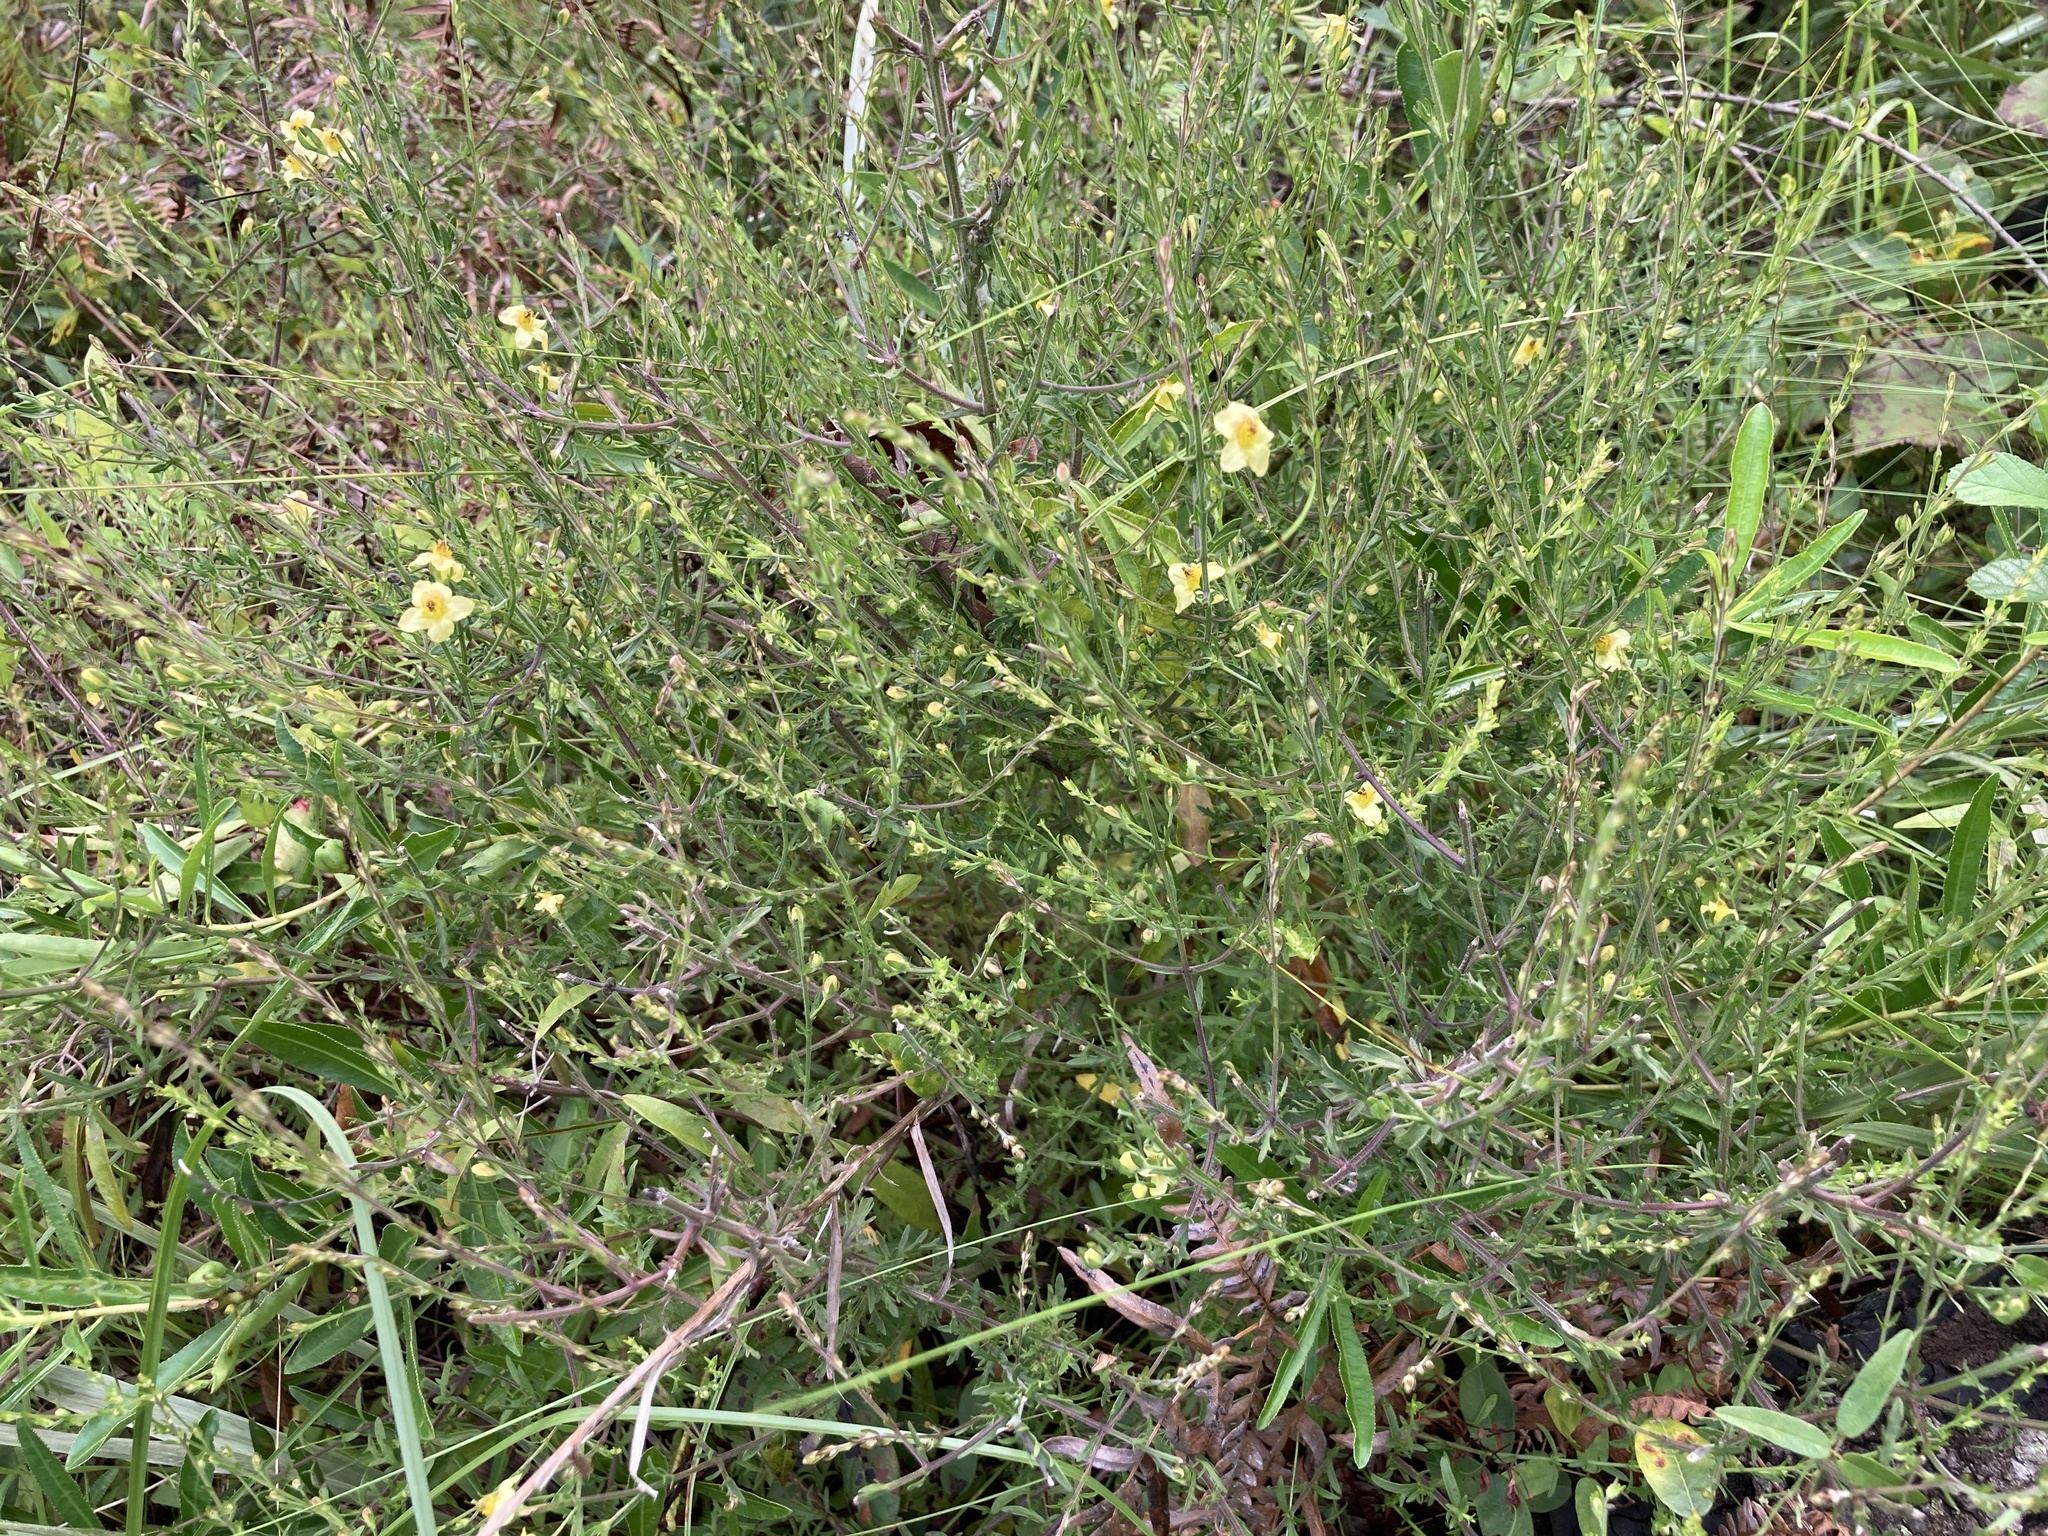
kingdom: Plantae
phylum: Tracheophyta
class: Magnoliopsida
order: Lamiales
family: Orobanchaceae
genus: Seymeria
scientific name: Seymeria pectinata
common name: Piedmont black-senna
